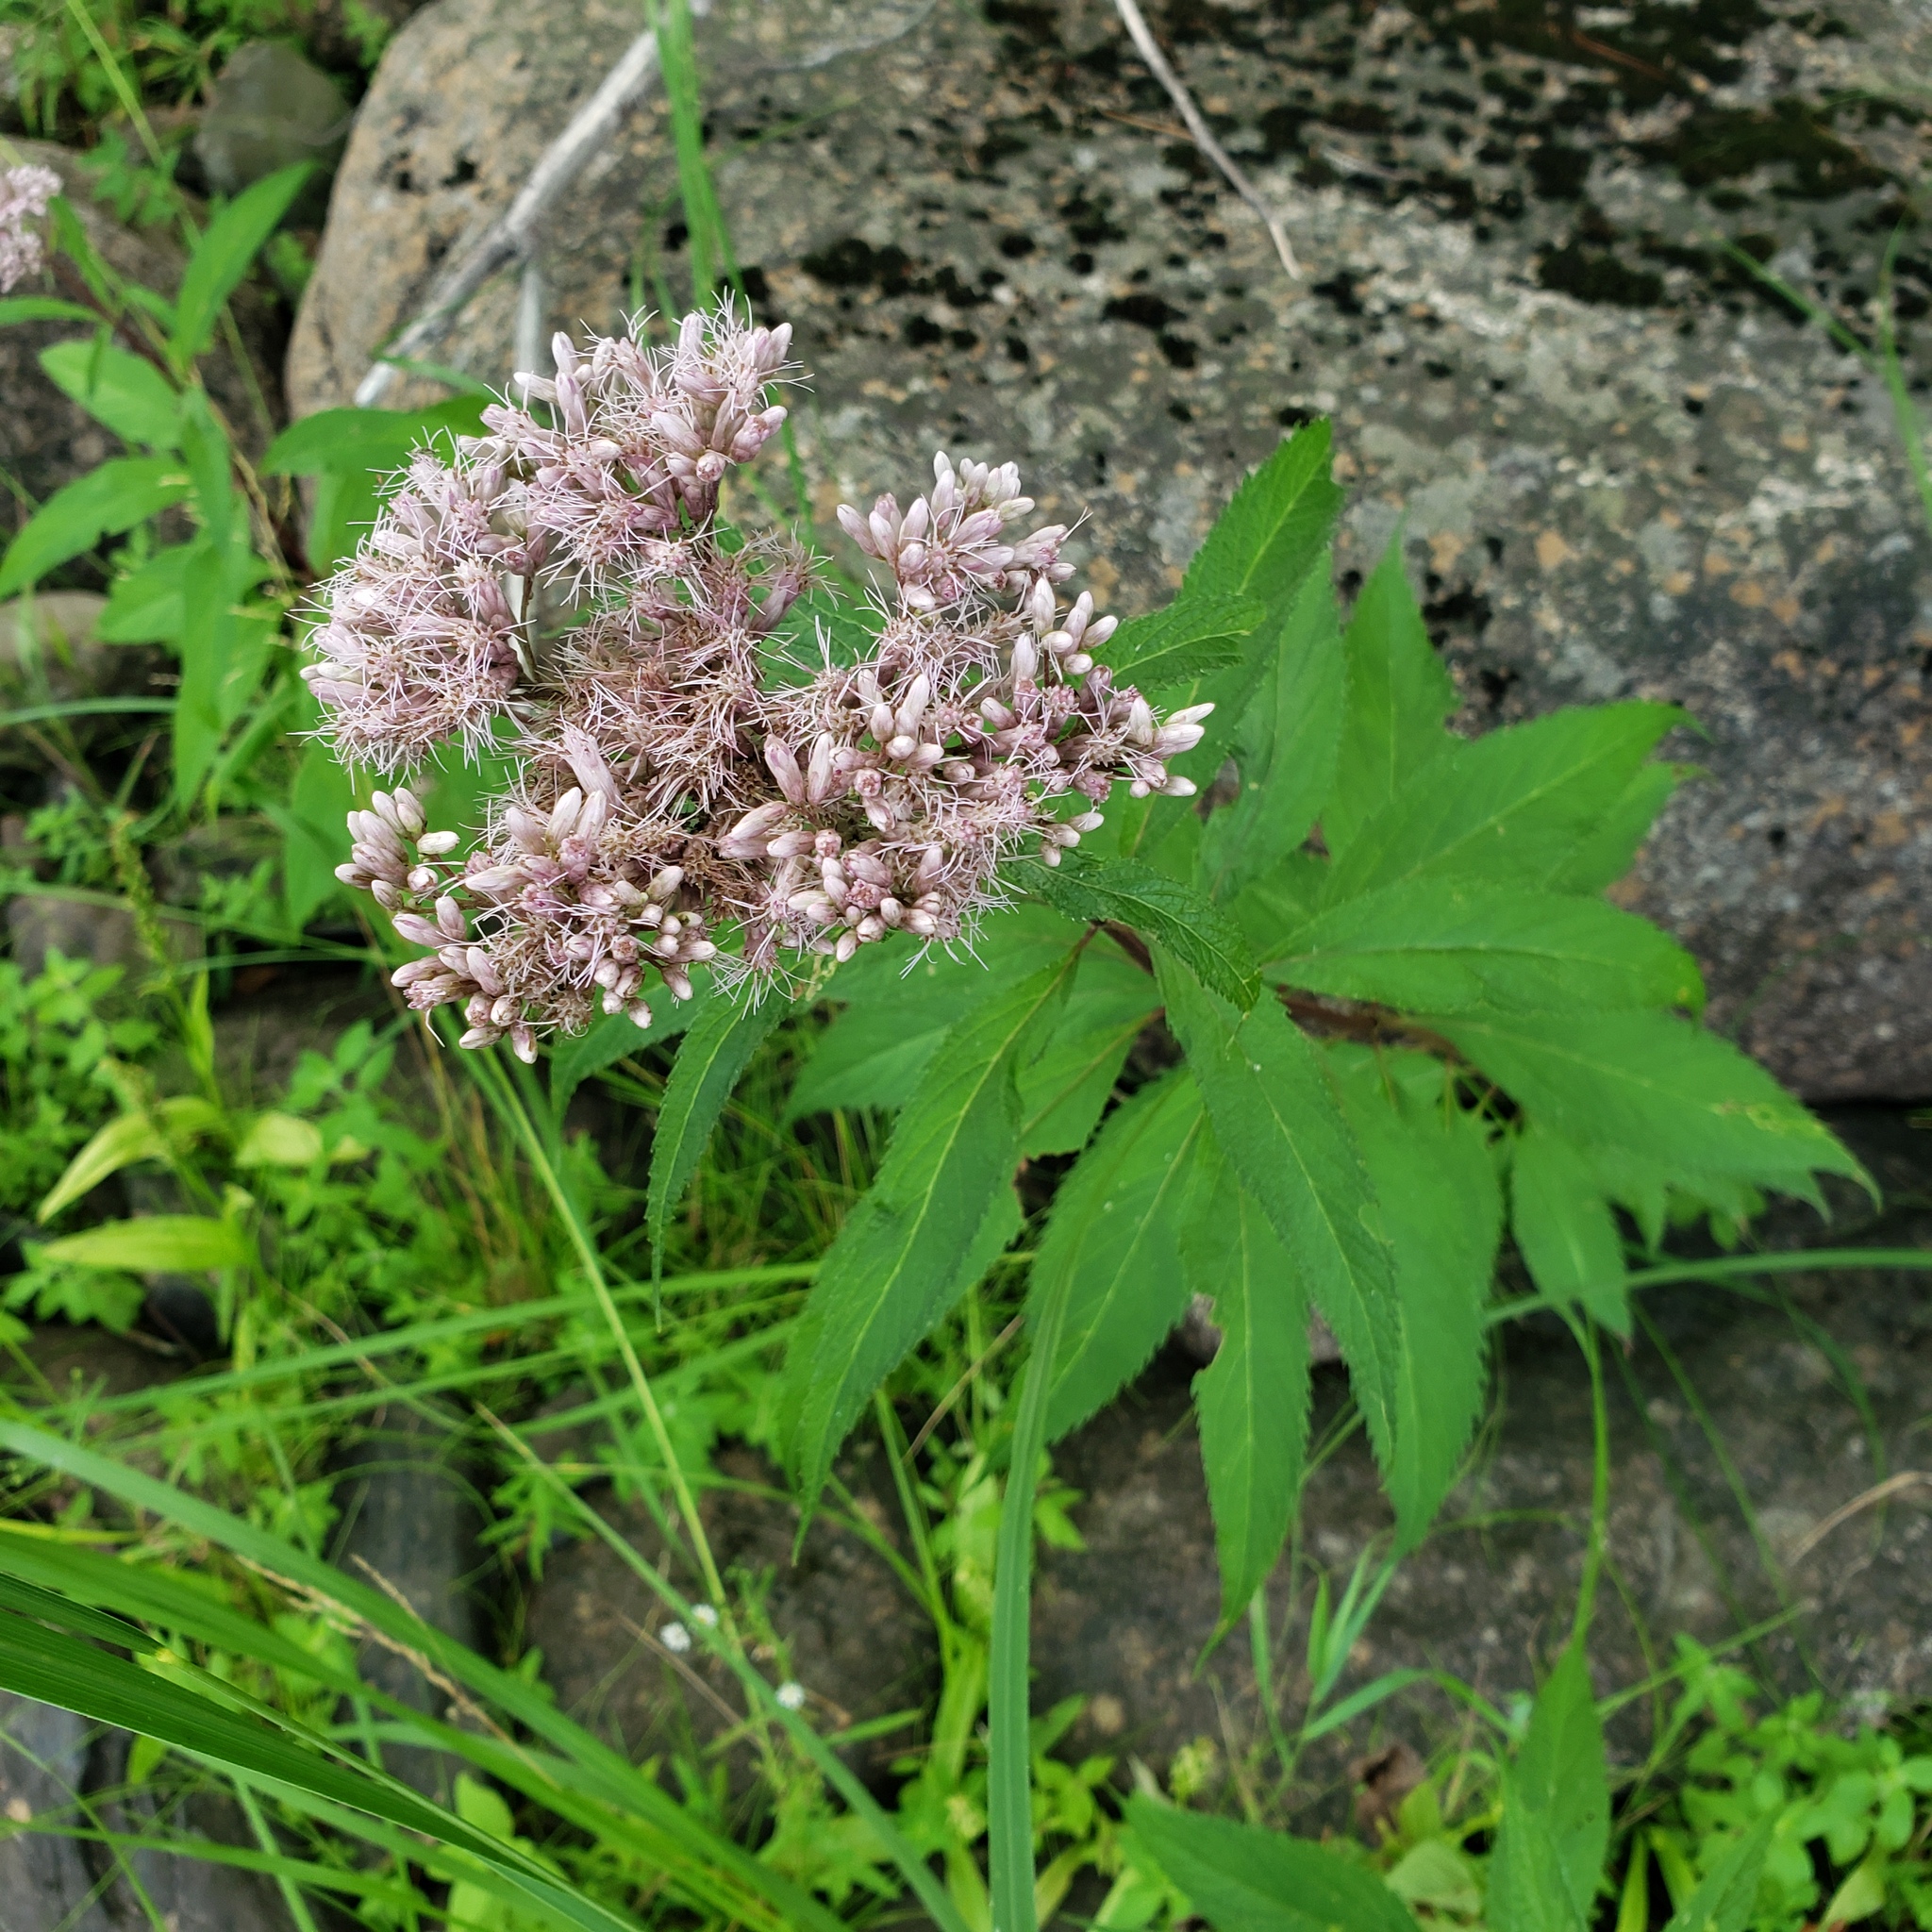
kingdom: Plantae
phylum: Tracheophyta
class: Magnoliopsida
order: Asterales
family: Asteraceae
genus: Eutrochium
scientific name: Eutrochium maculatum
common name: Spotted joe pye weed
